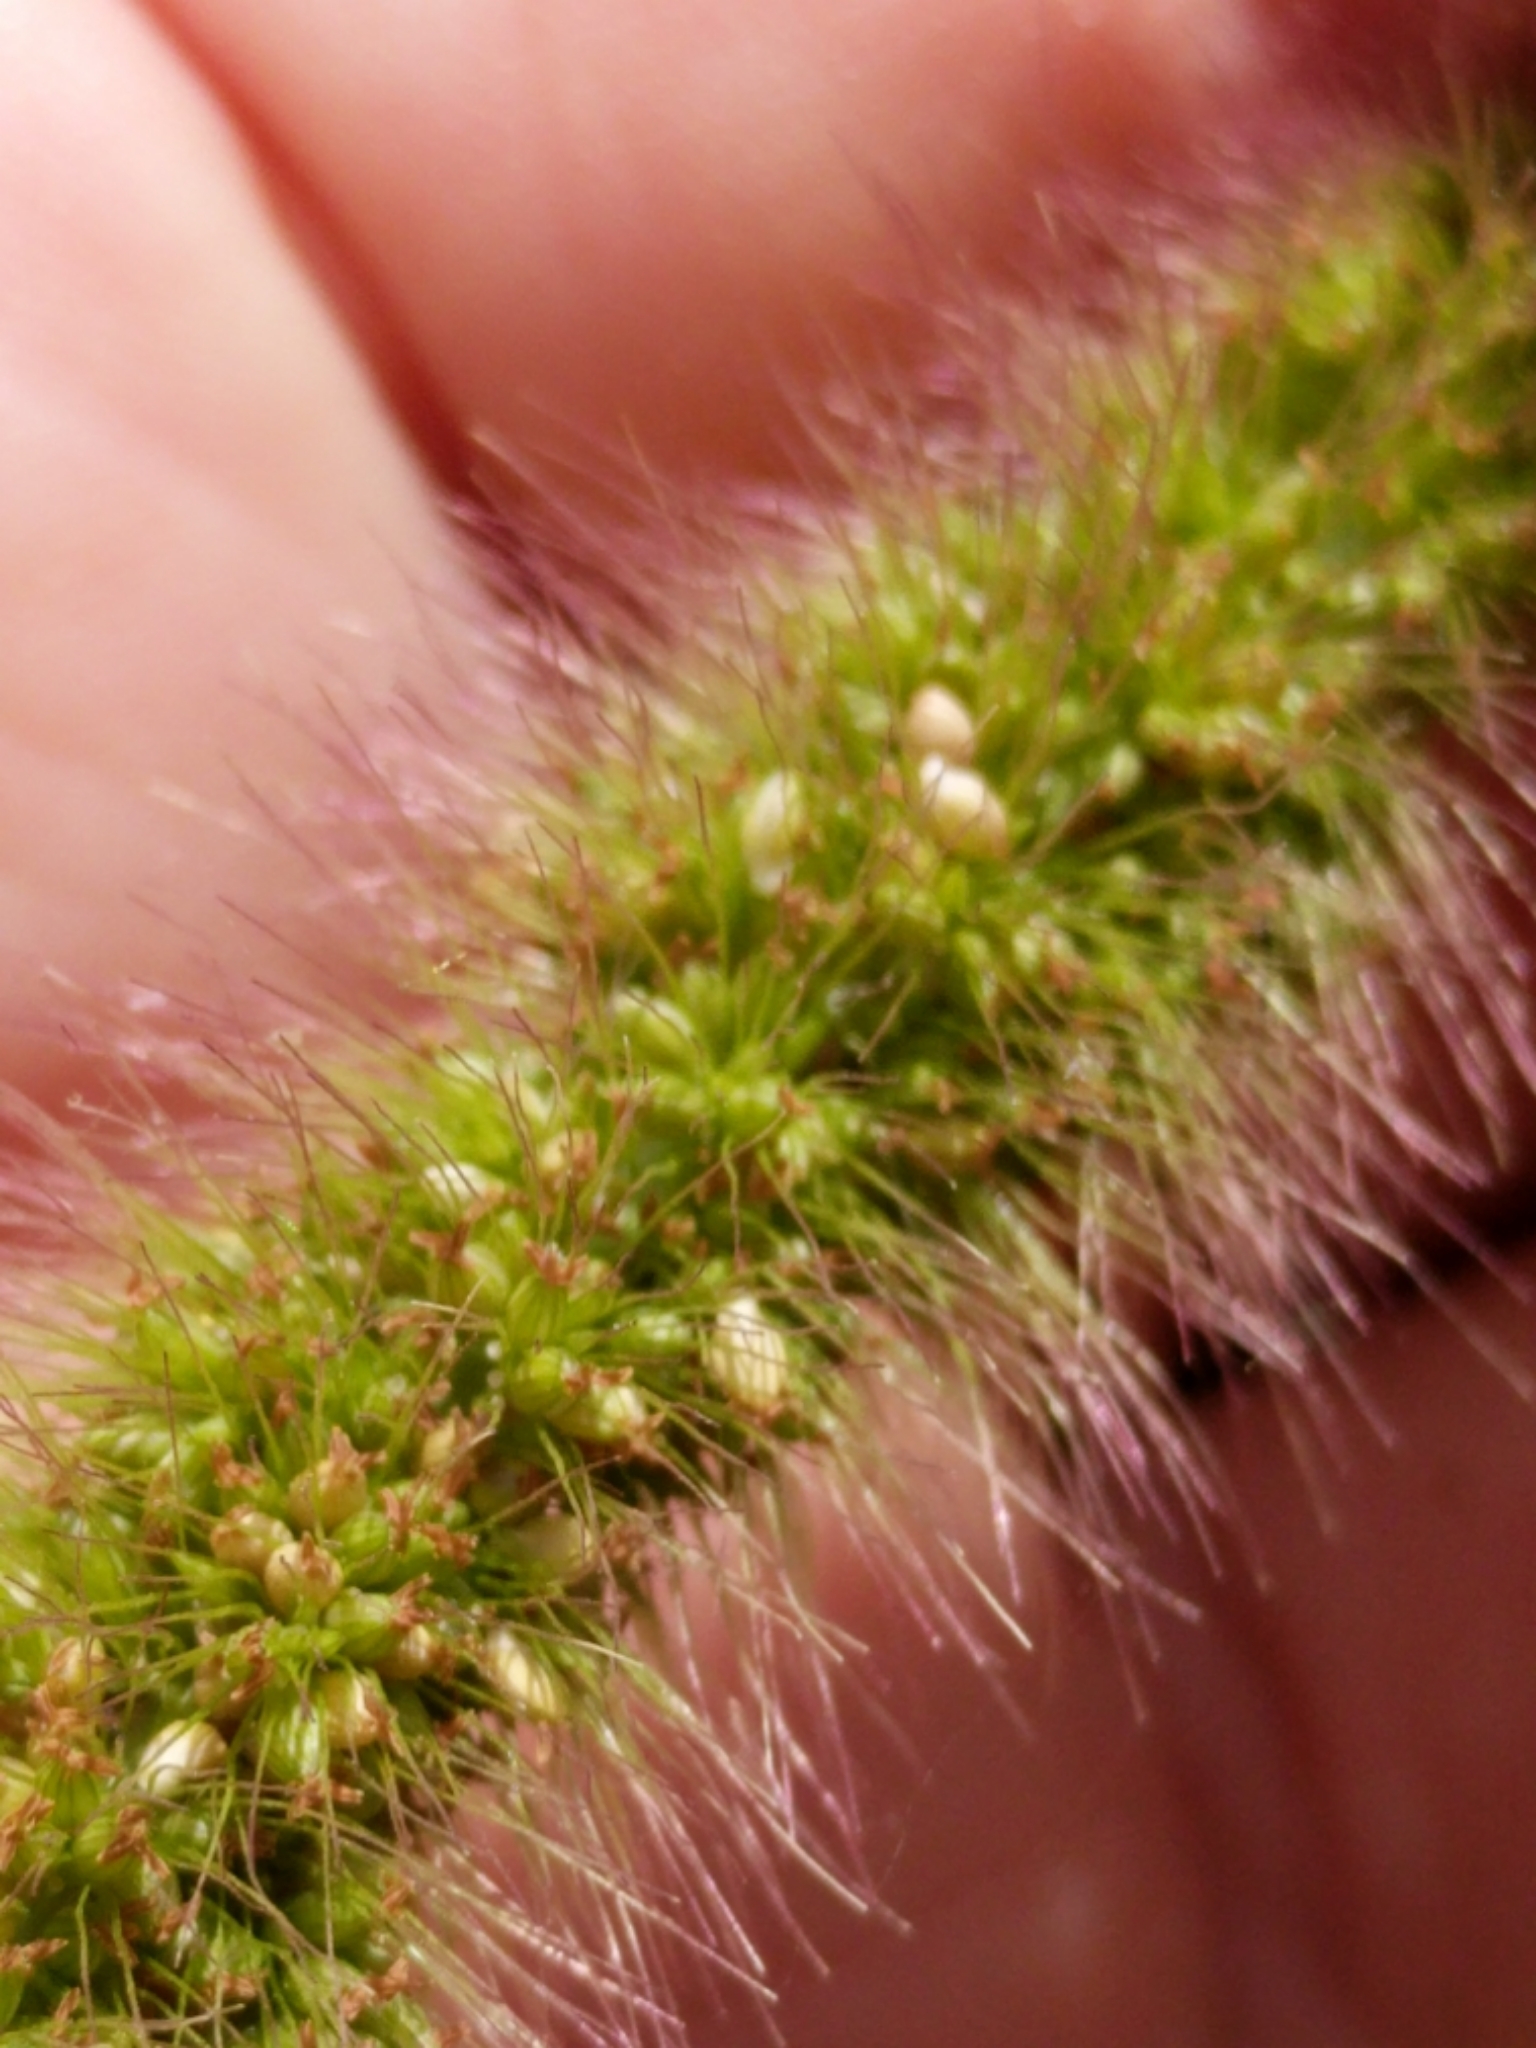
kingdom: Plantae
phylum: Tracheophyta
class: Liliopsida
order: Poales
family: Poaceae
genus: Setaria
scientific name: Setaria viridis
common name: Green bristlegrass
